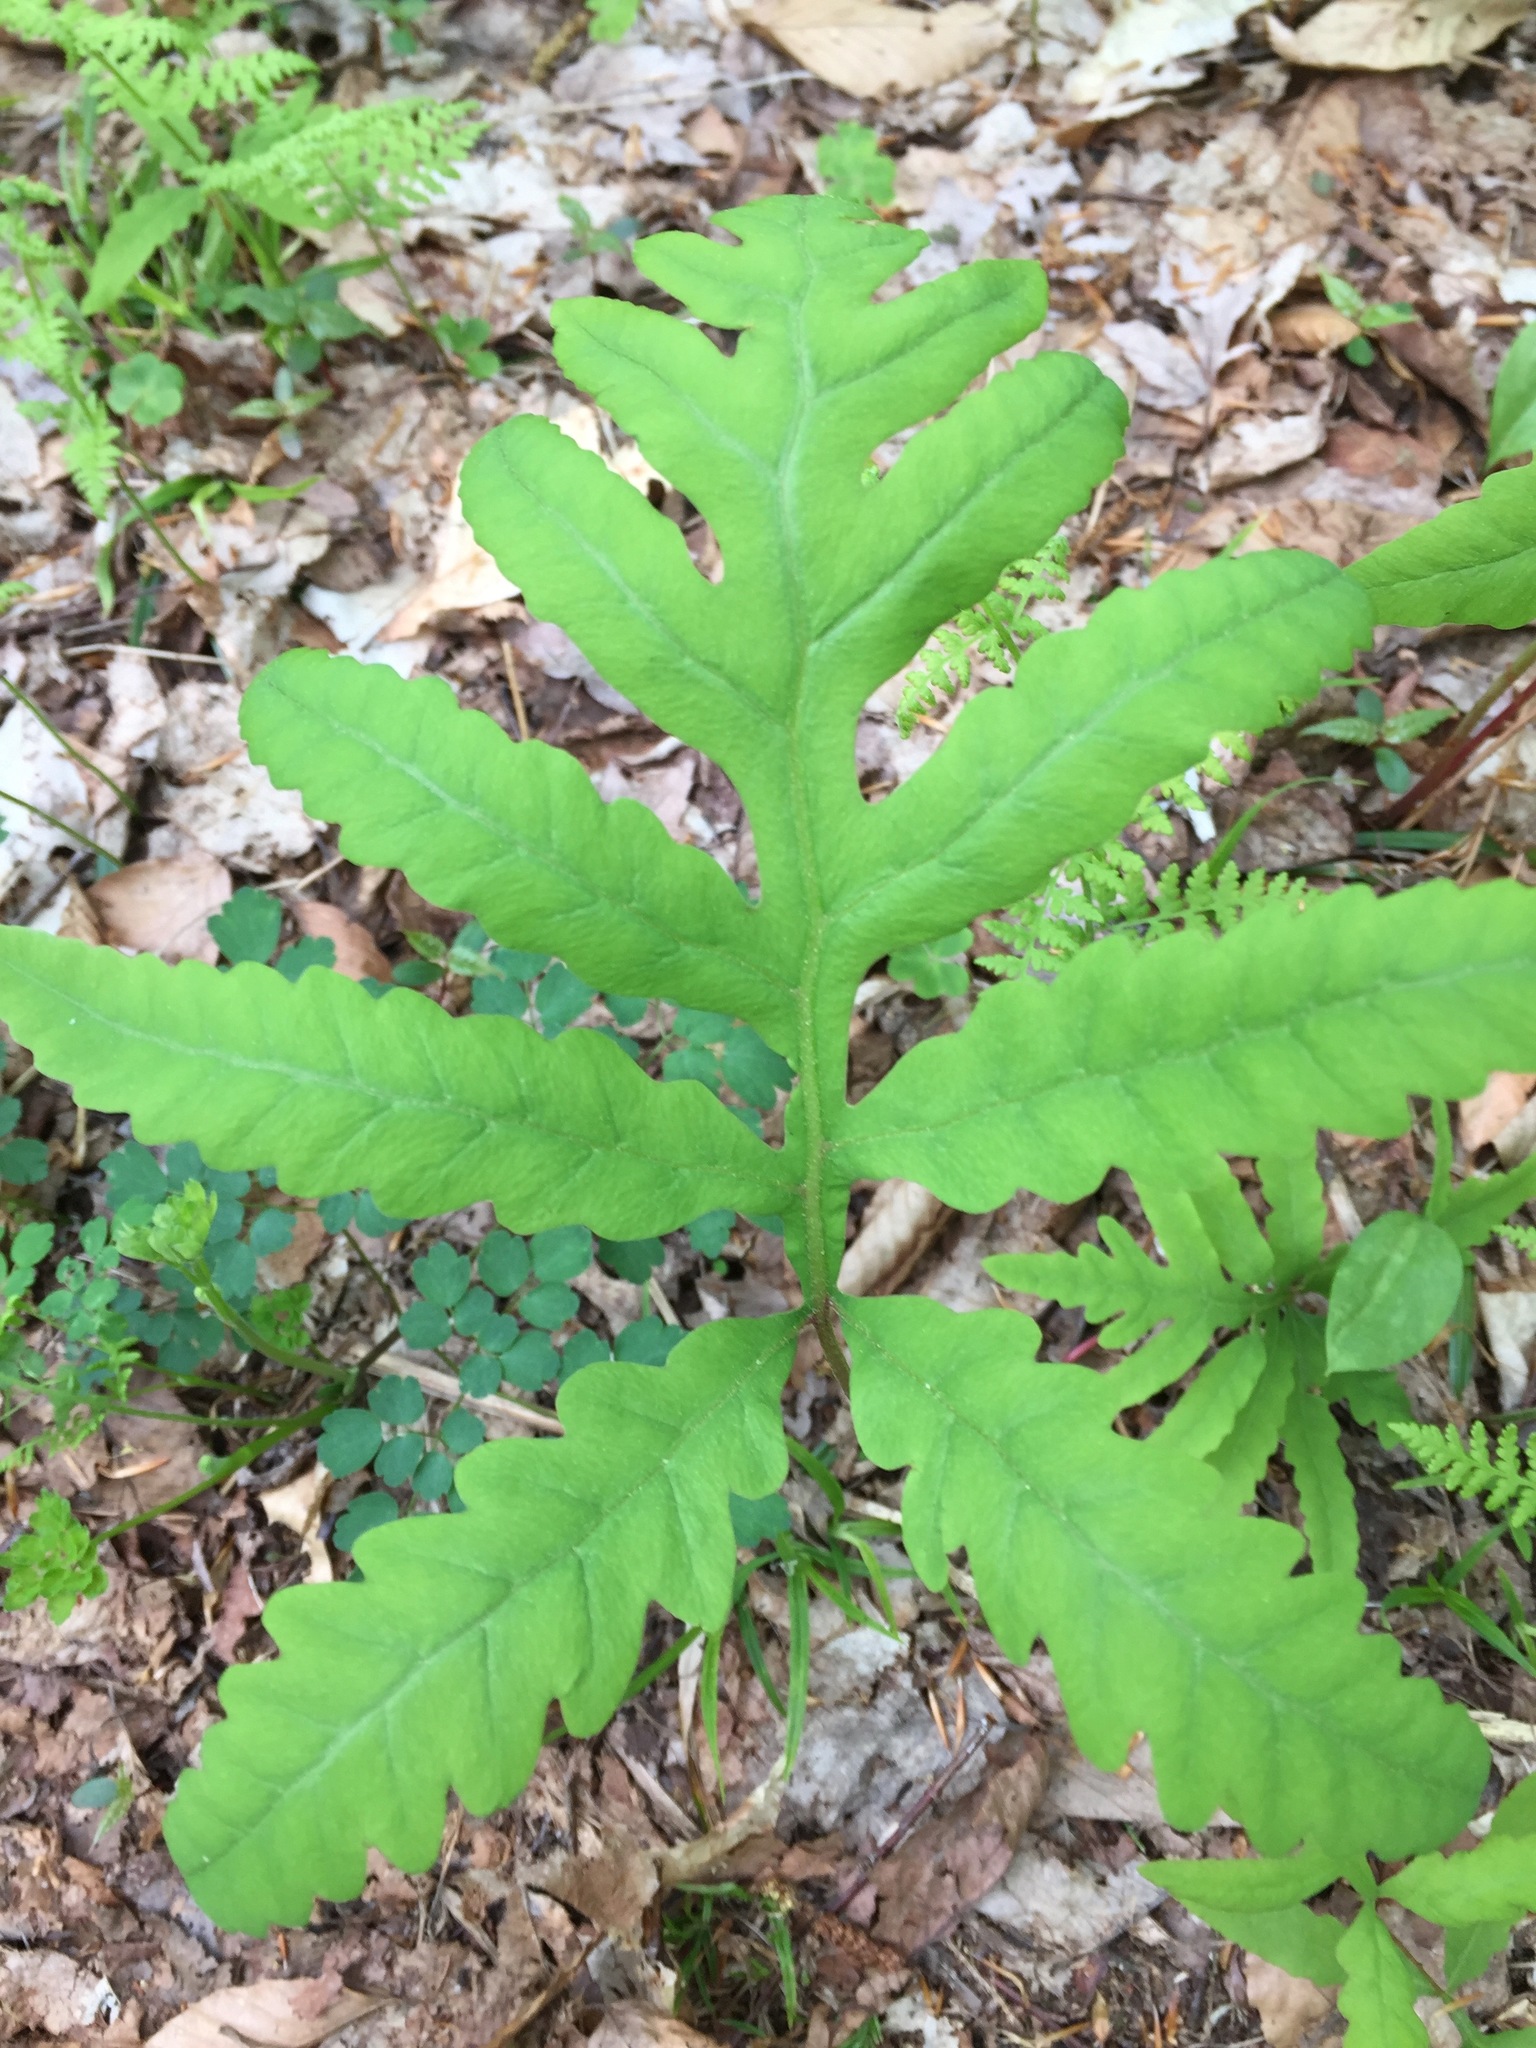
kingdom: Plantae
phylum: Tracheophyta
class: Polypodiopsida
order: Polypodiales
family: Onocleaceae
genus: Onoclea
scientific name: Onoclea sensibilis
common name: Sensitive fern
